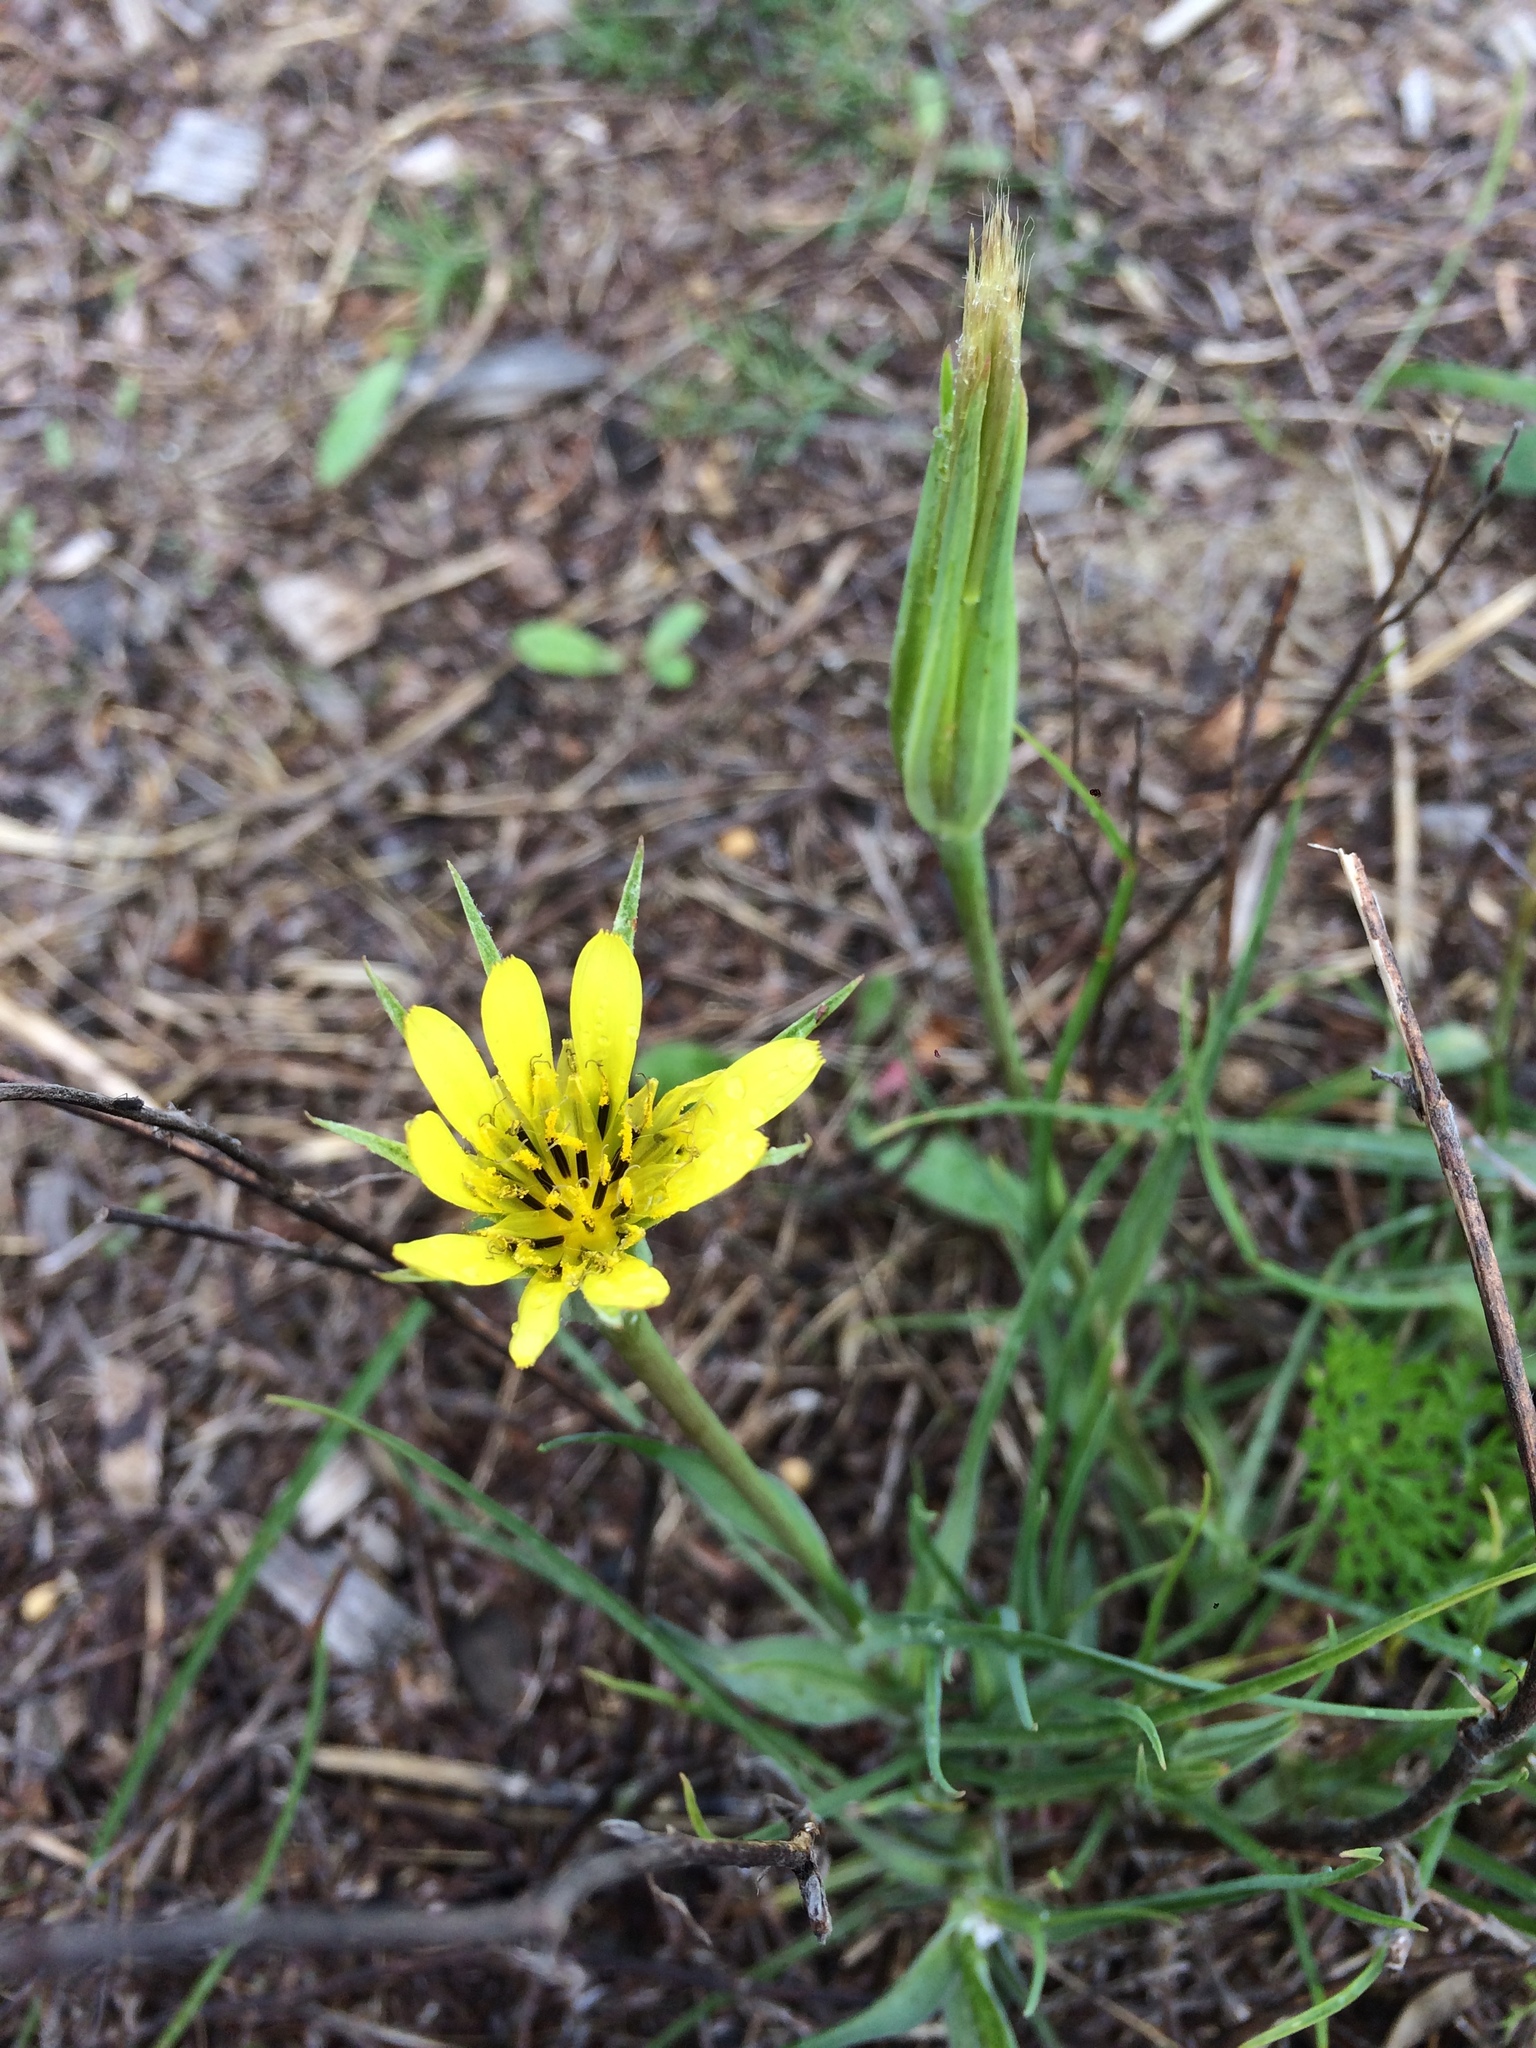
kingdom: Plantae
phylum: Tracheophyta
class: Magnoliopsida
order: Asterales
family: Asteraceae
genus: Tragopogon
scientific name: Tragopogon dubius
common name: Yellow salsify
